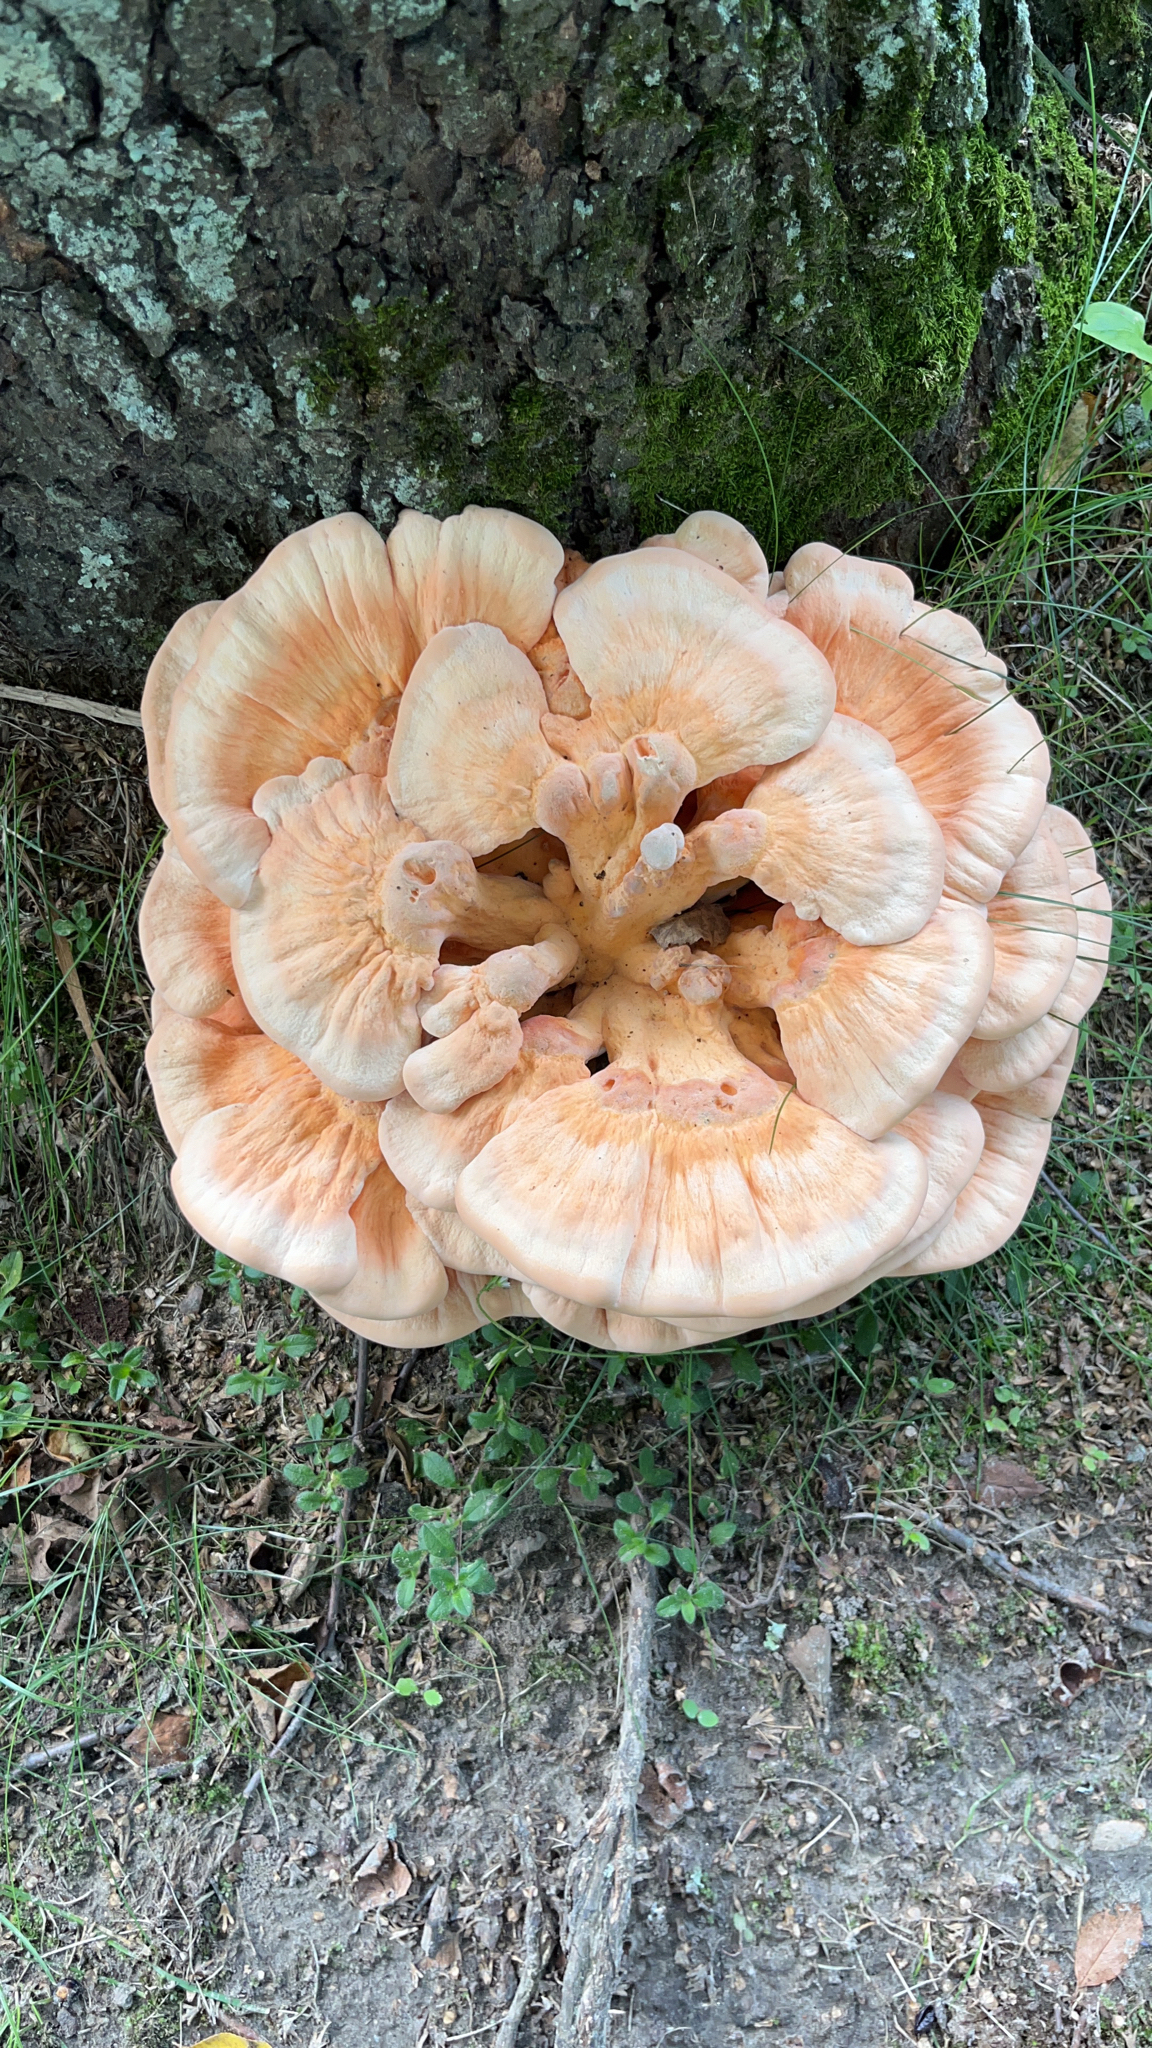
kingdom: Fungi
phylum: Basidiomycota
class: Agaricomycetes
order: Polyporales
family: Laetiporaceae
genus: Laetiporus
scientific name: Laetiporus sulphureus
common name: Chicken of the woods
